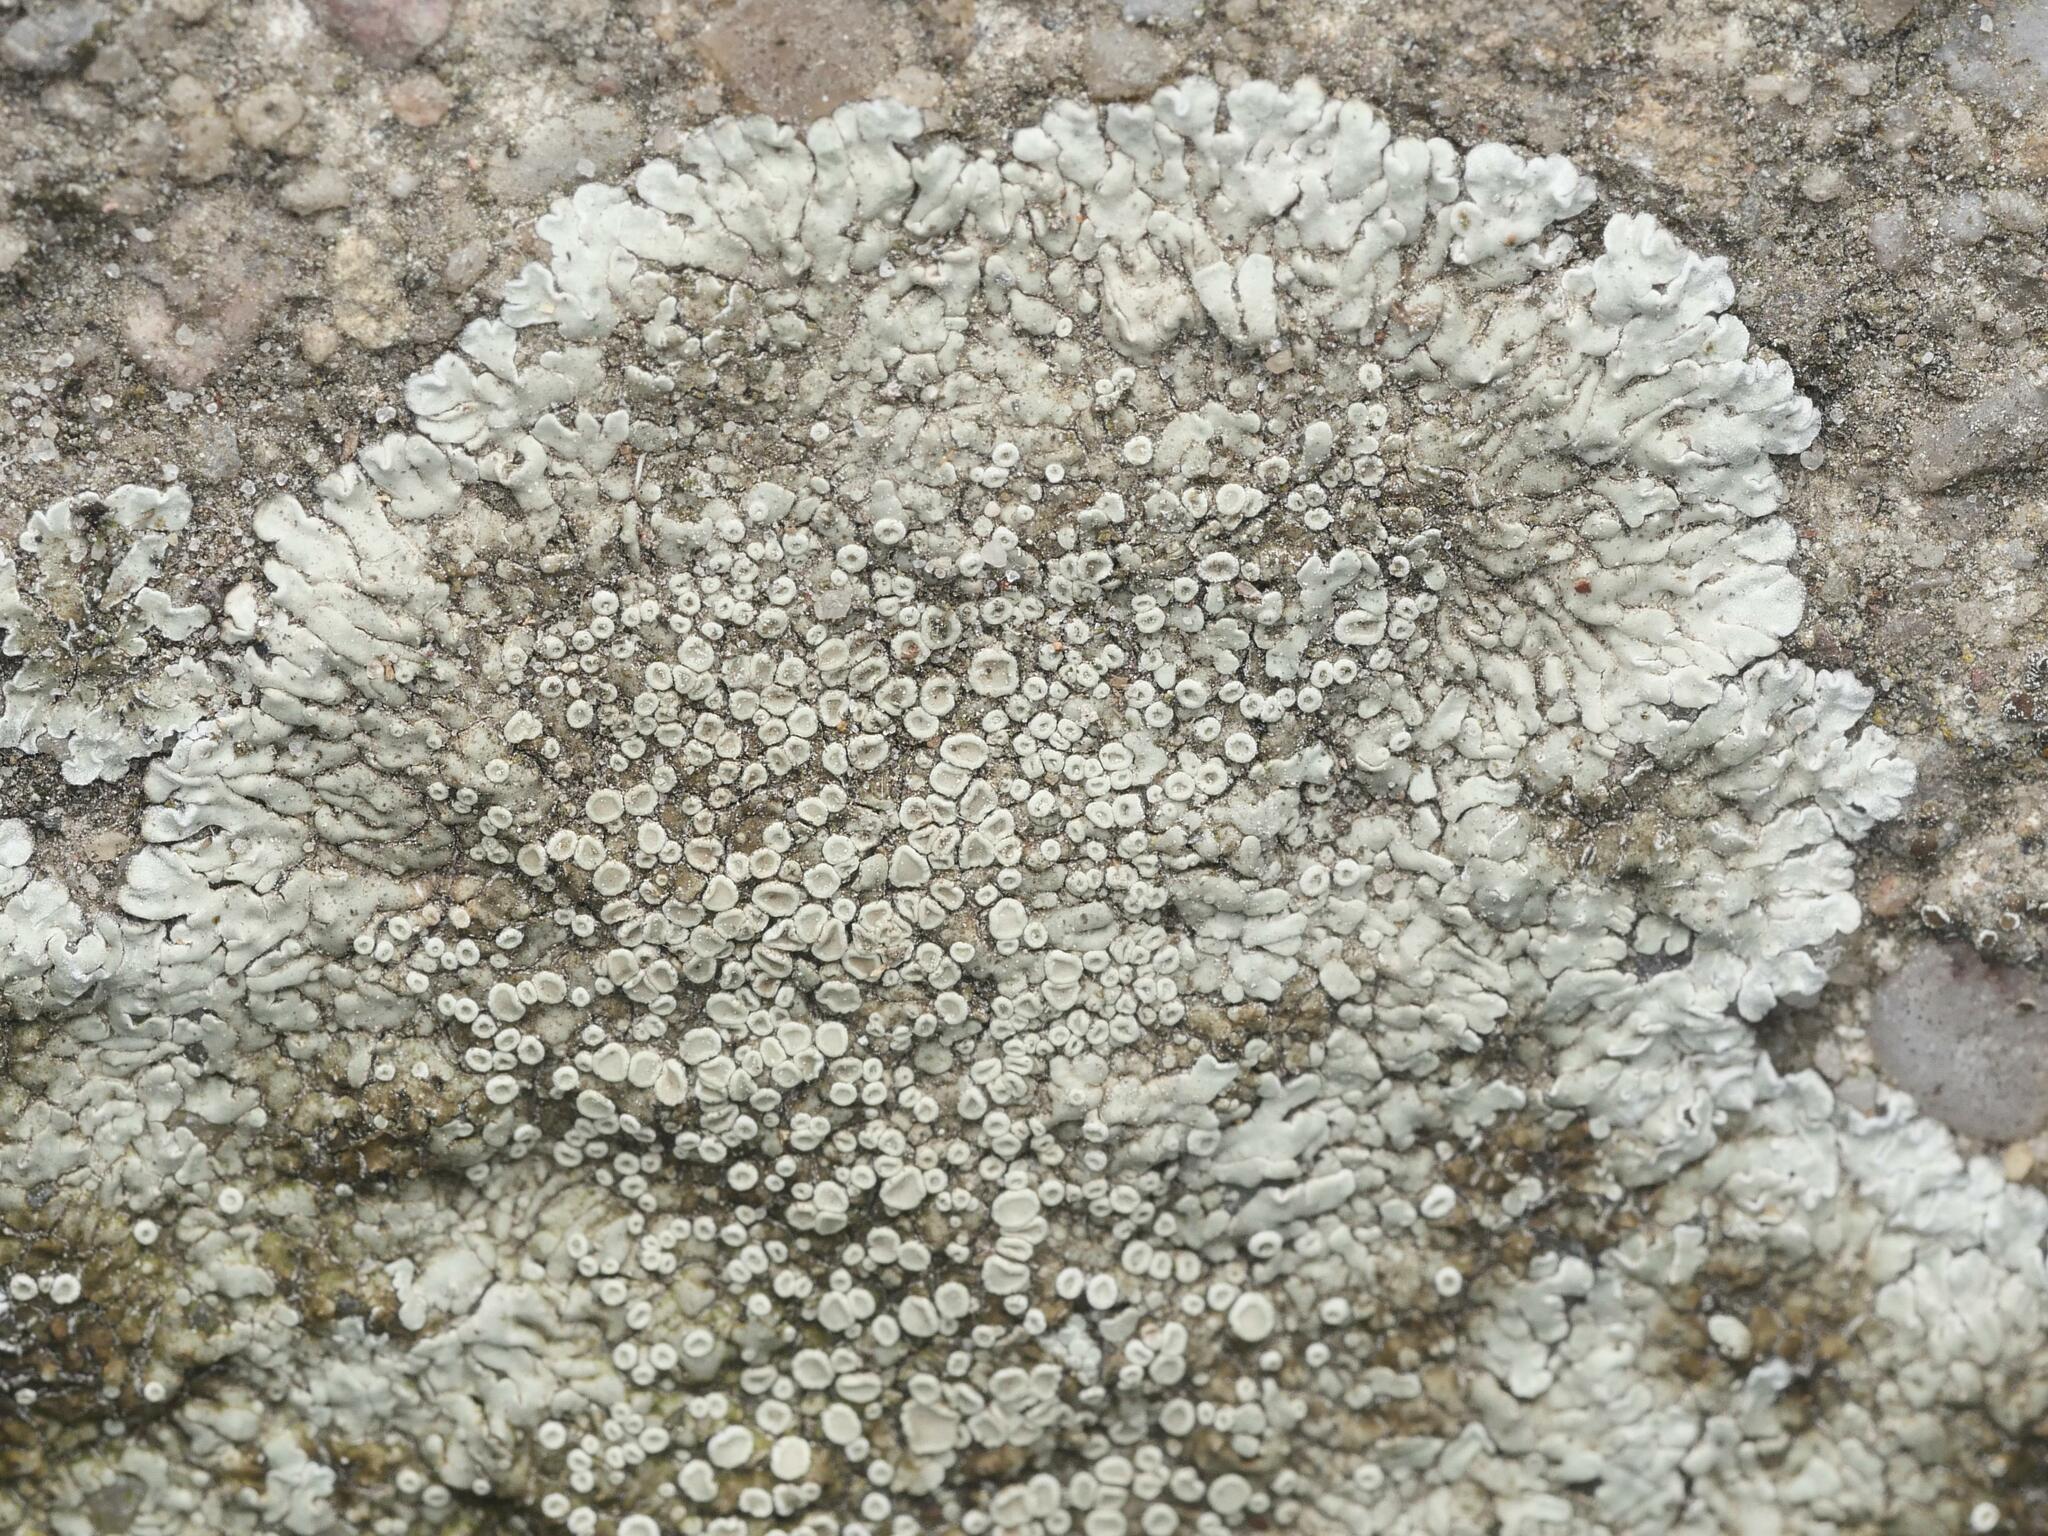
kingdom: Fungi
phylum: Ascomycota
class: Lecanoromycetes
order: Lecanorales
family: Lecanoraceae
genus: Protoparmeliopsis
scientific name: Protoparmeliopsis muralis
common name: Stonewall rim lichen
